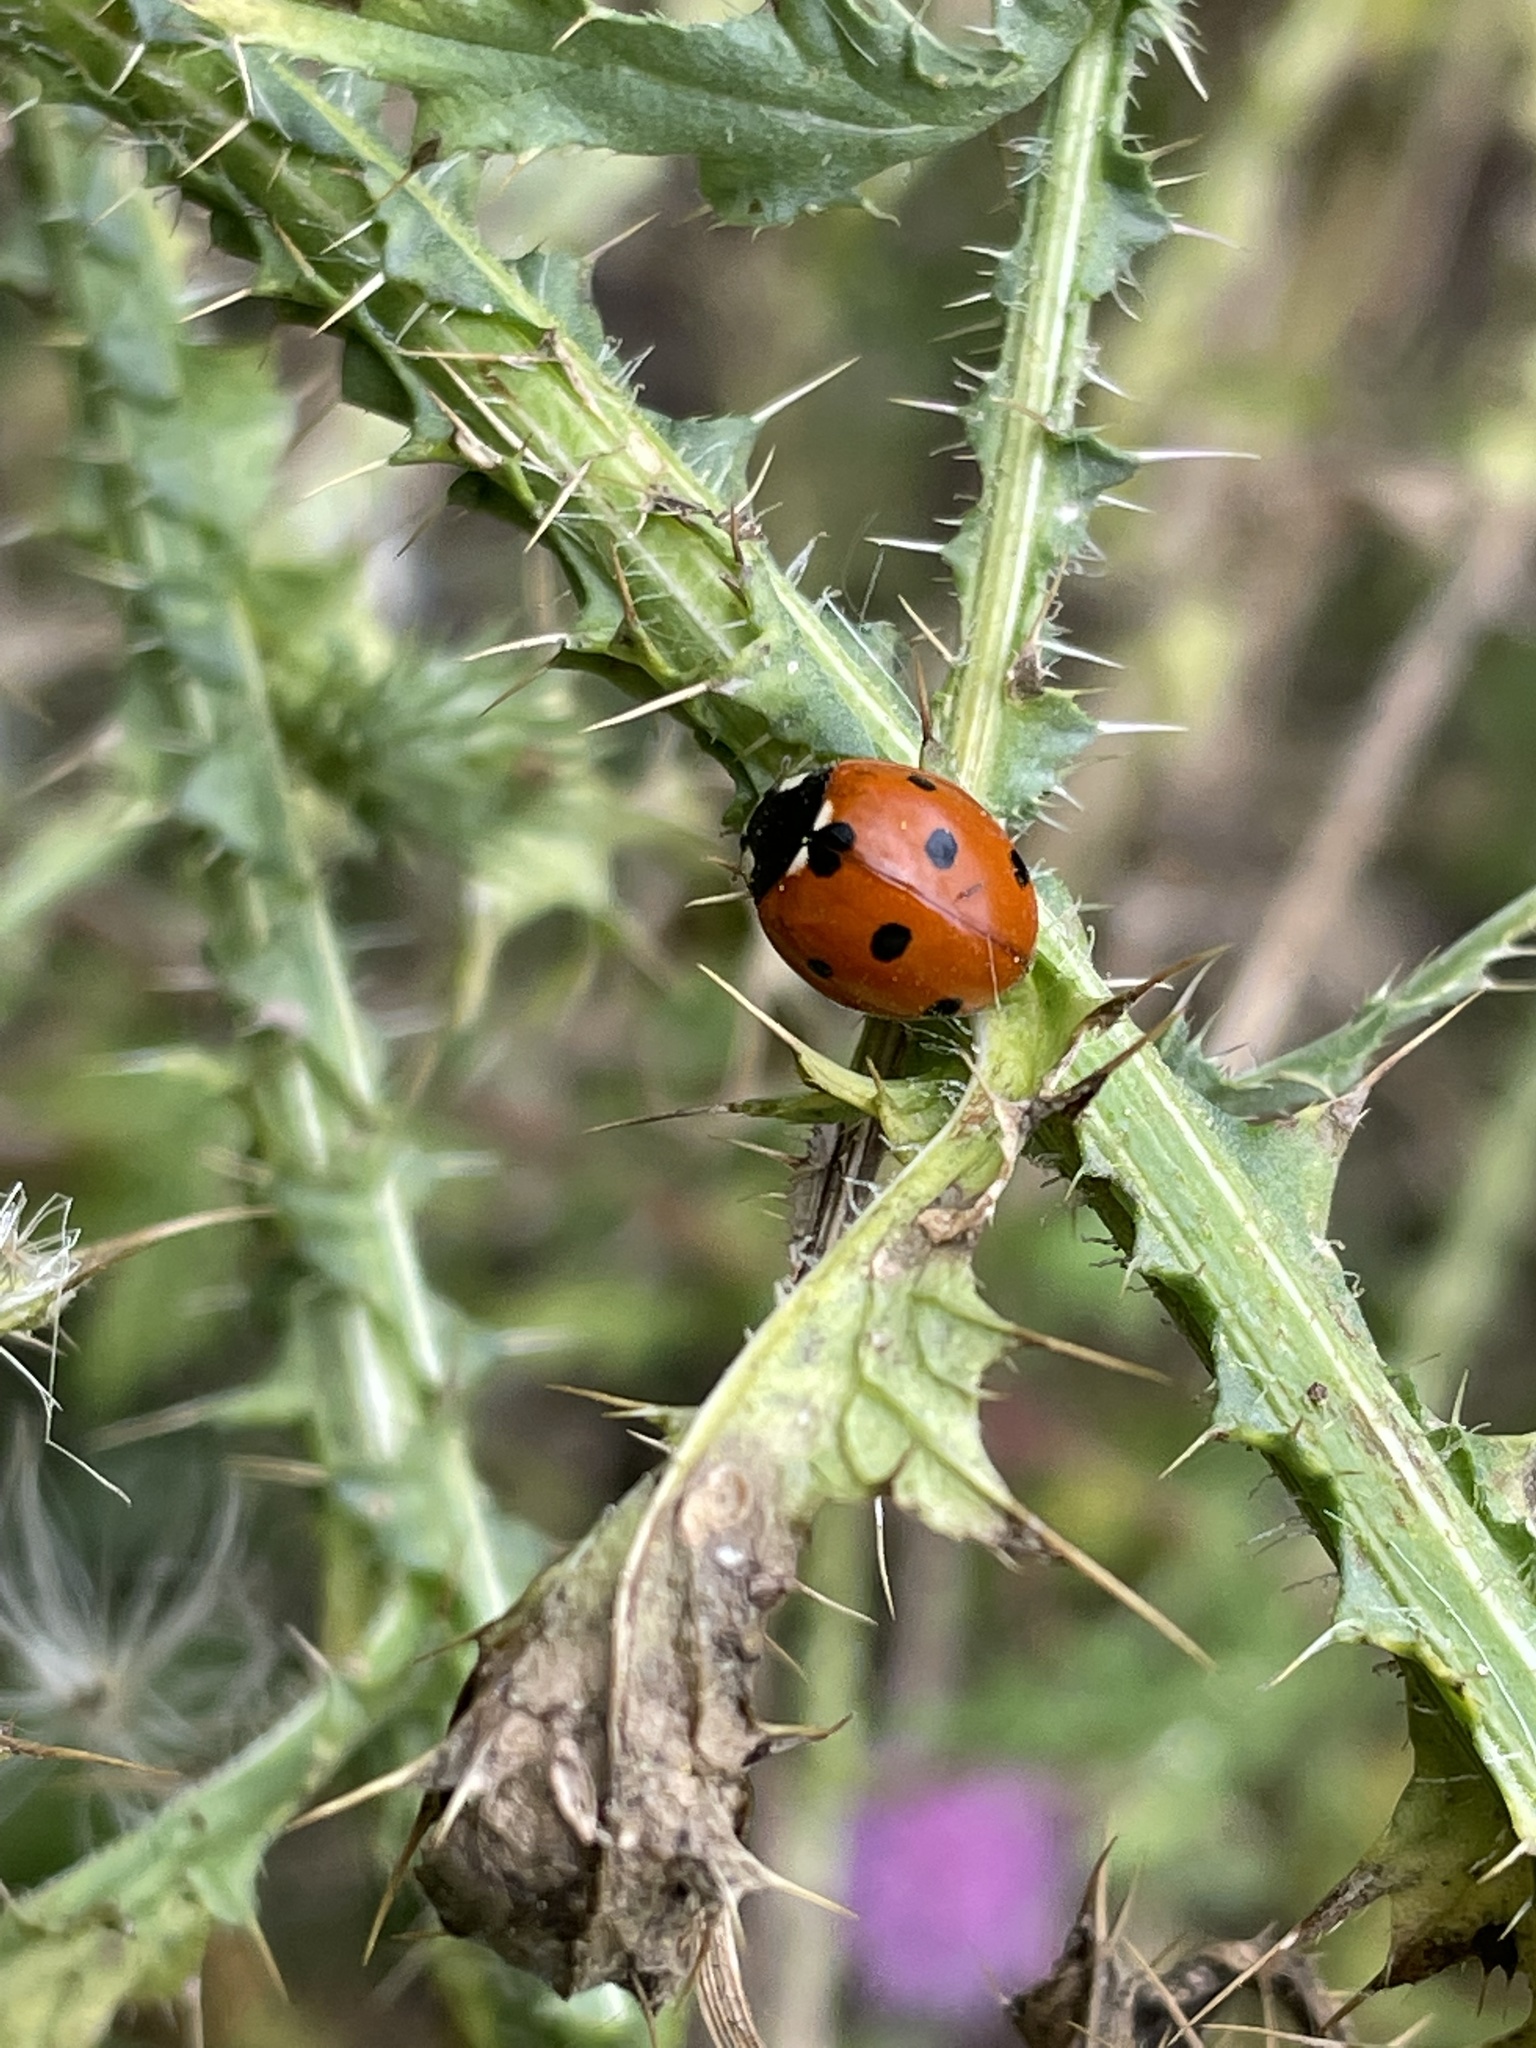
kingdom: Animalia
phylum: Arthropoda
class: Insecta
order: Coleoptera
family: Coccinellidae
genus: Coccinella
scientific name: Coccinella septempunctata
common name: Sevenspotted lady beetle
